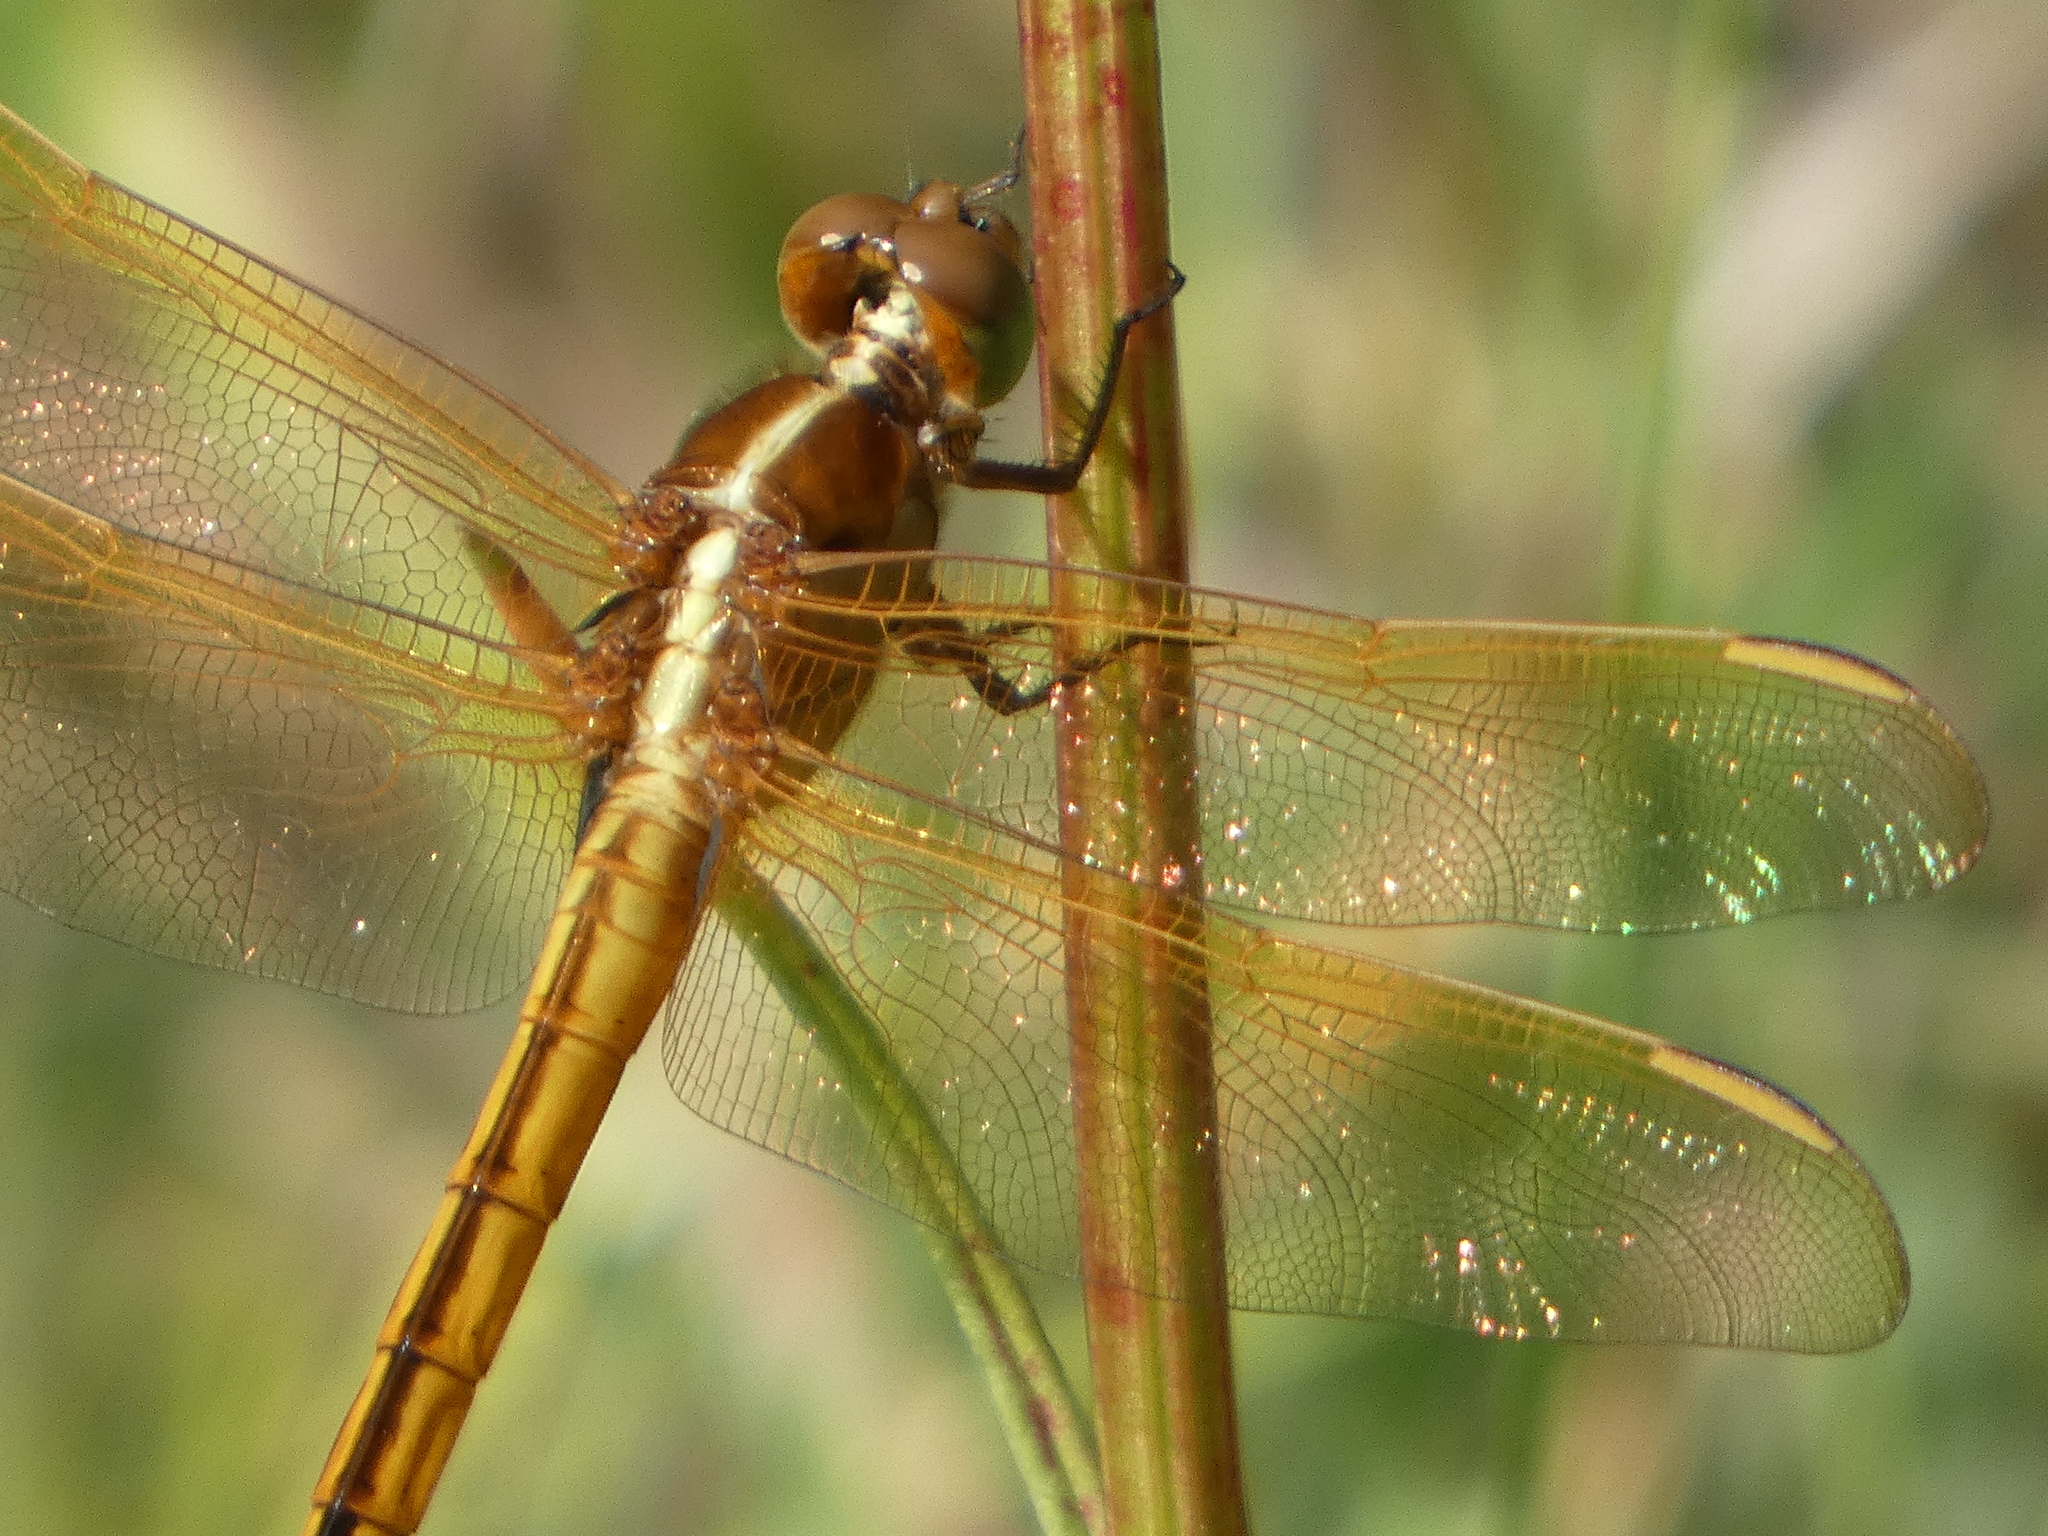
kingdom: Animalia
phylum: Arthropoda
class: Insecta
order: Odonata
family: Libellulidae
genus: Libellula
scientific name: Libellula needhami
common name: Needham's skimmer
